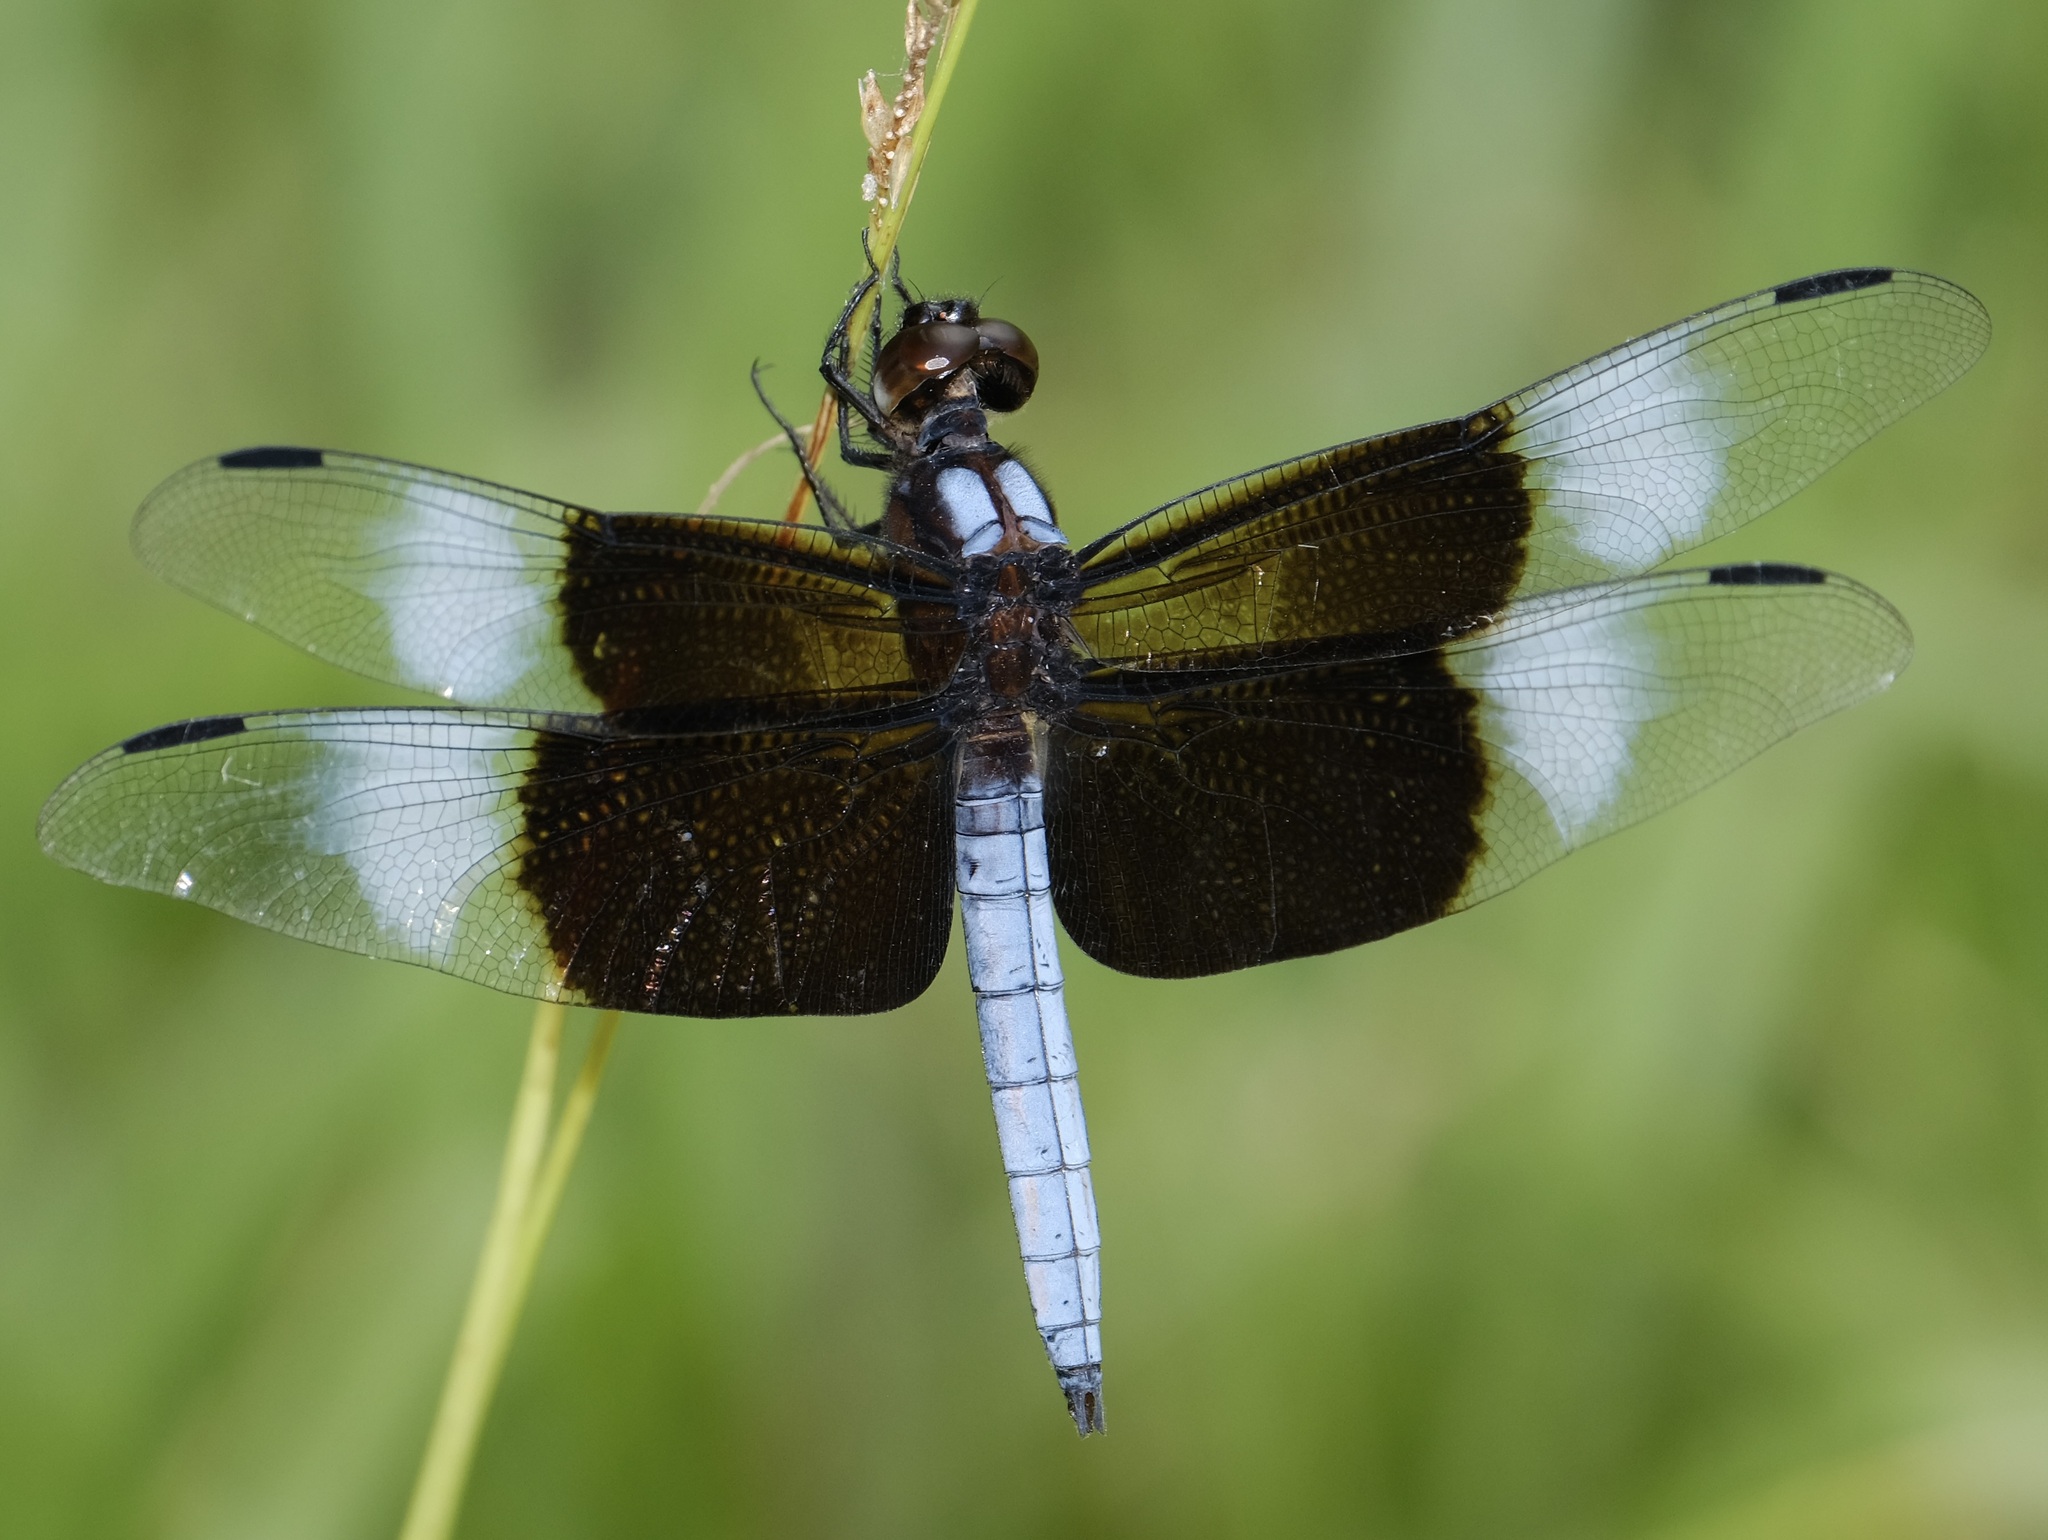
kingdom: Animalia
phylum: Arthropoda
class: Insecta
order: Odonata
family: Libellulidae
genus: Libellula
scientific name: Libellula luctuosa
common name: Widow skimmer
